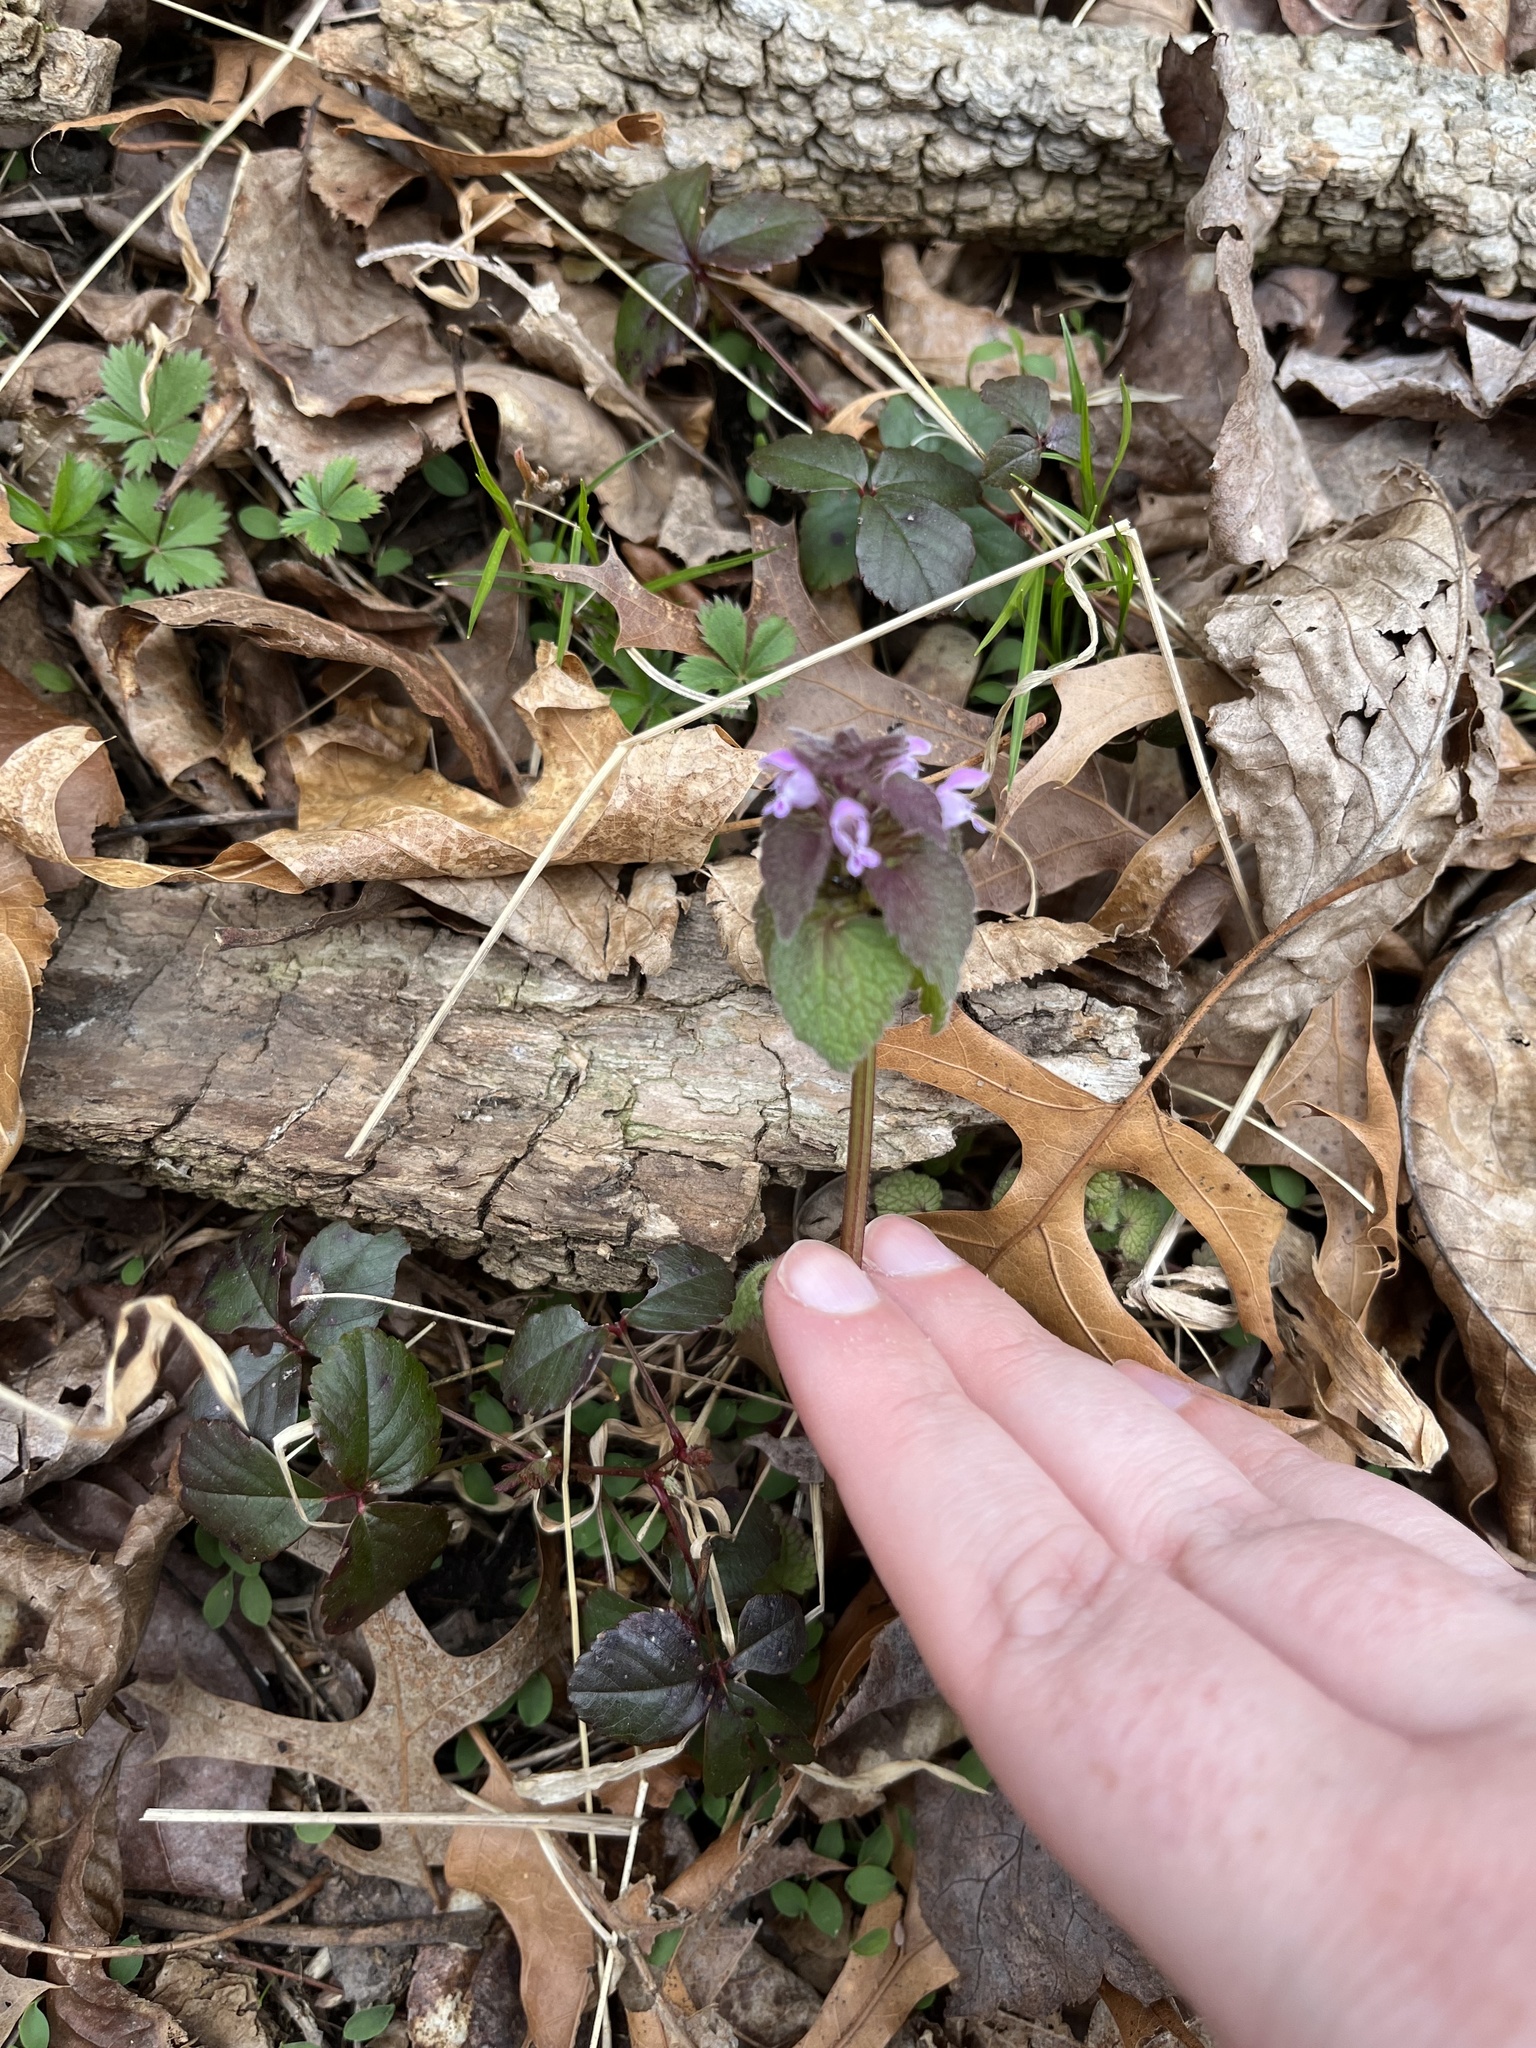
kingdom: Plantae
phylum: Tracheophyta
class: Magnoliopsida
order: Lamiales
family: Lamiaceae
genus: Lamium
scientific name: Lamium purpureum
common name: Red dead-nettle
